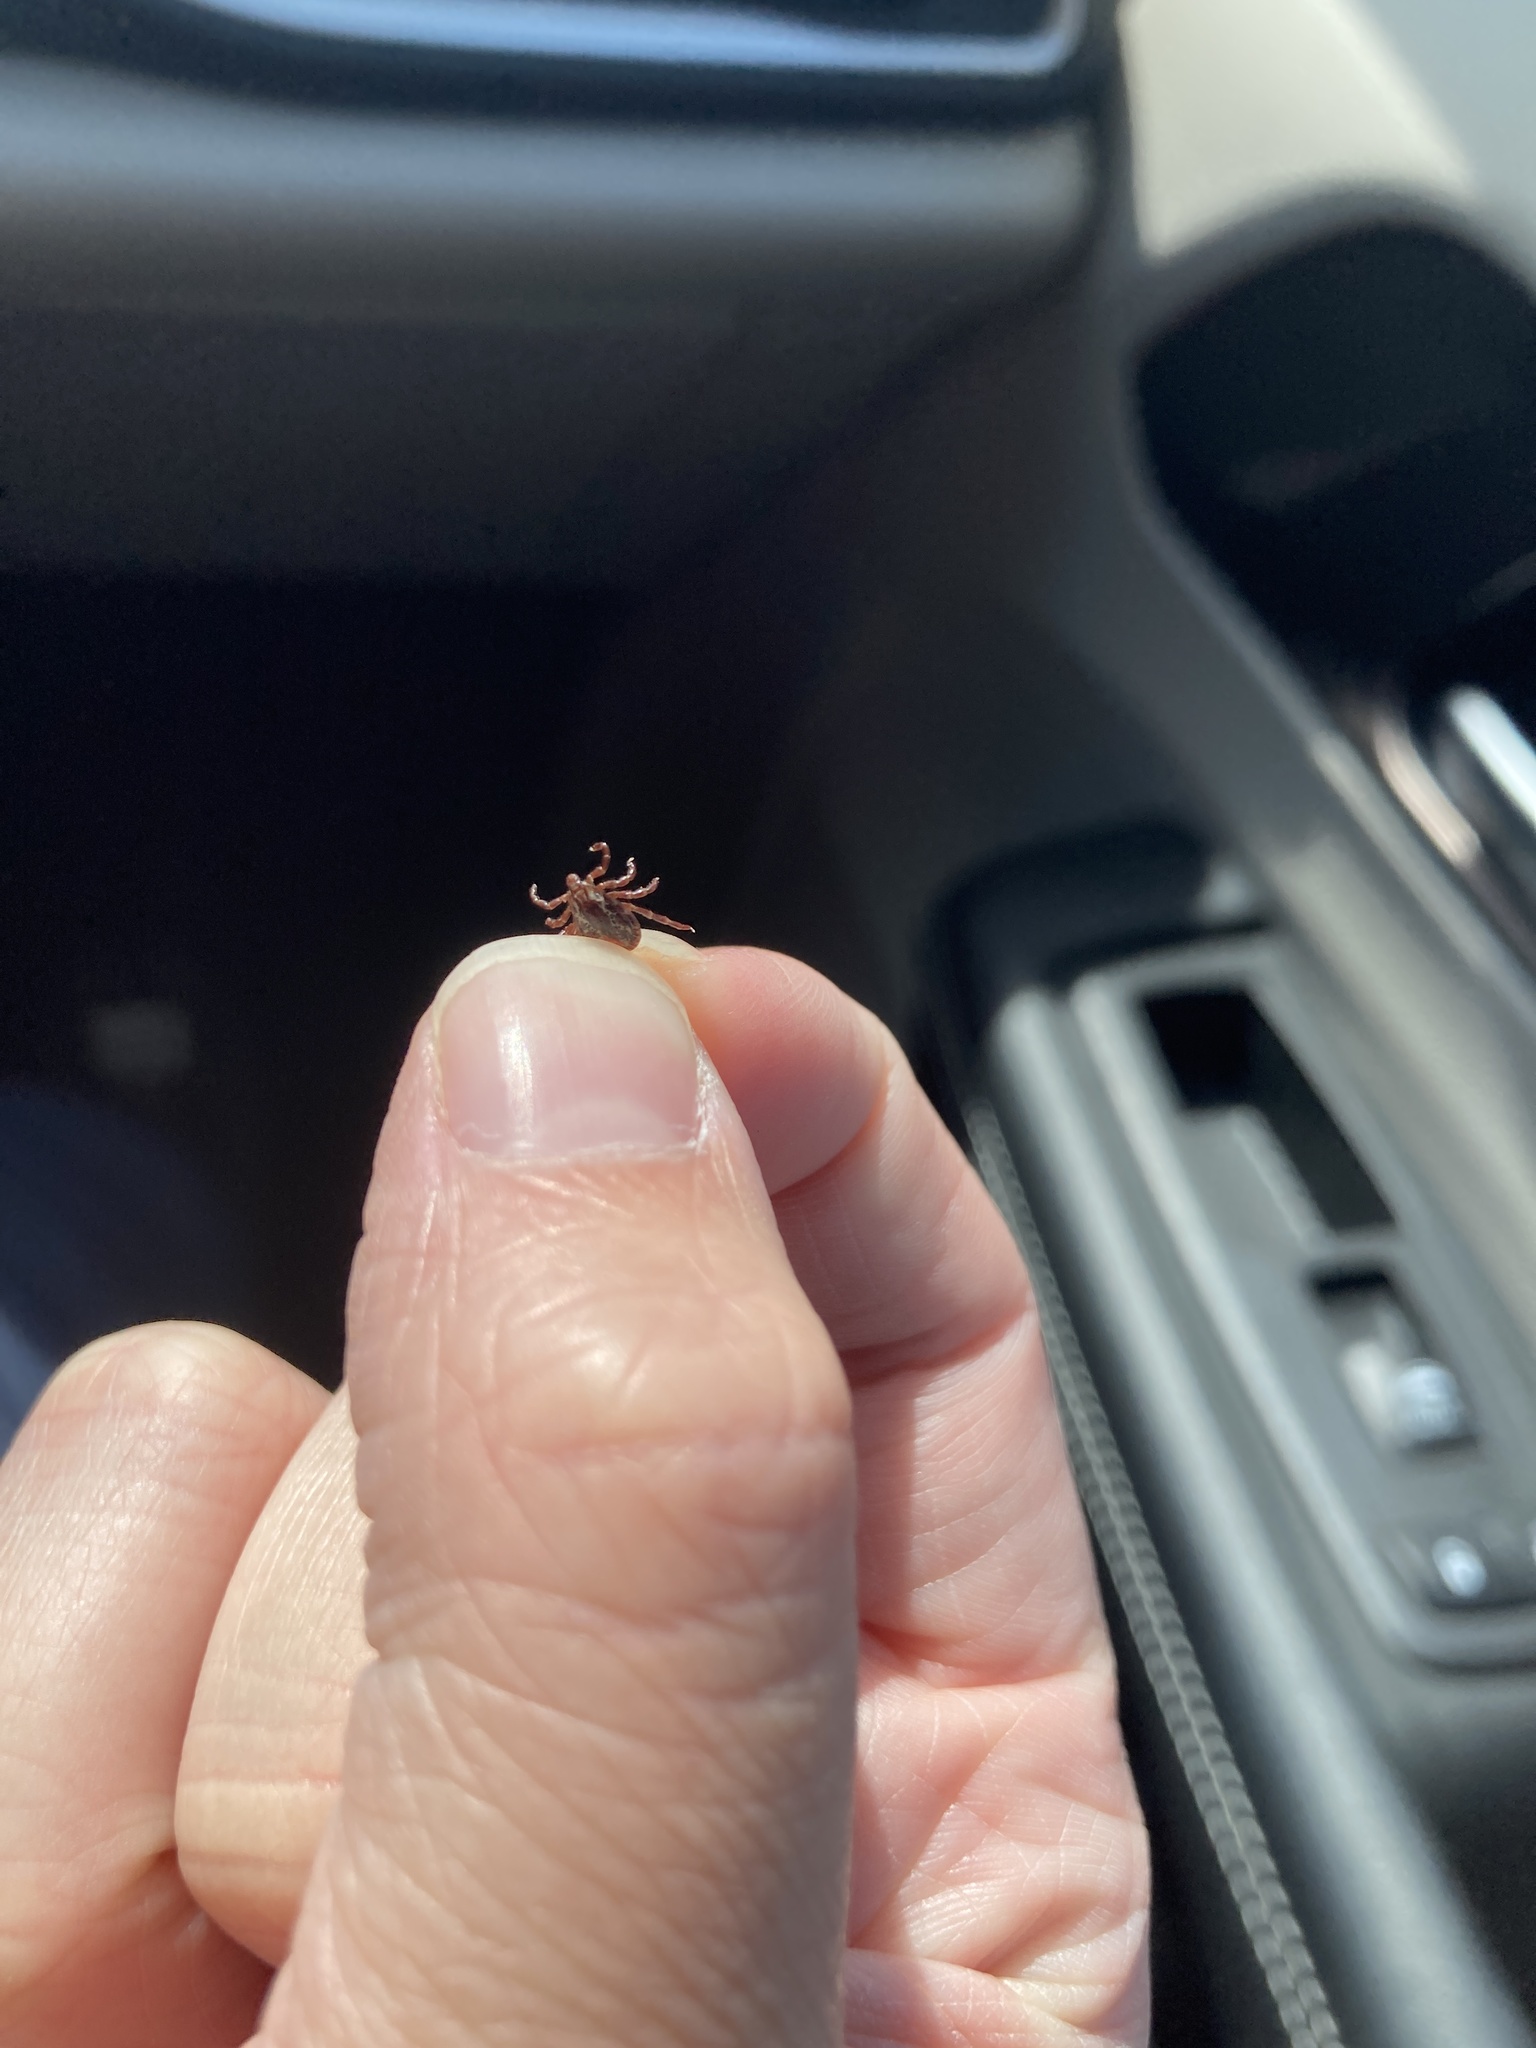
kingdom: Animalia
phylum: Arthropoda
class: Arachnida
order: Ixodida
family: Ixodidae
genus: Dermacentor
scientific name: Dermacentor variabilis
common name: American dog tick
